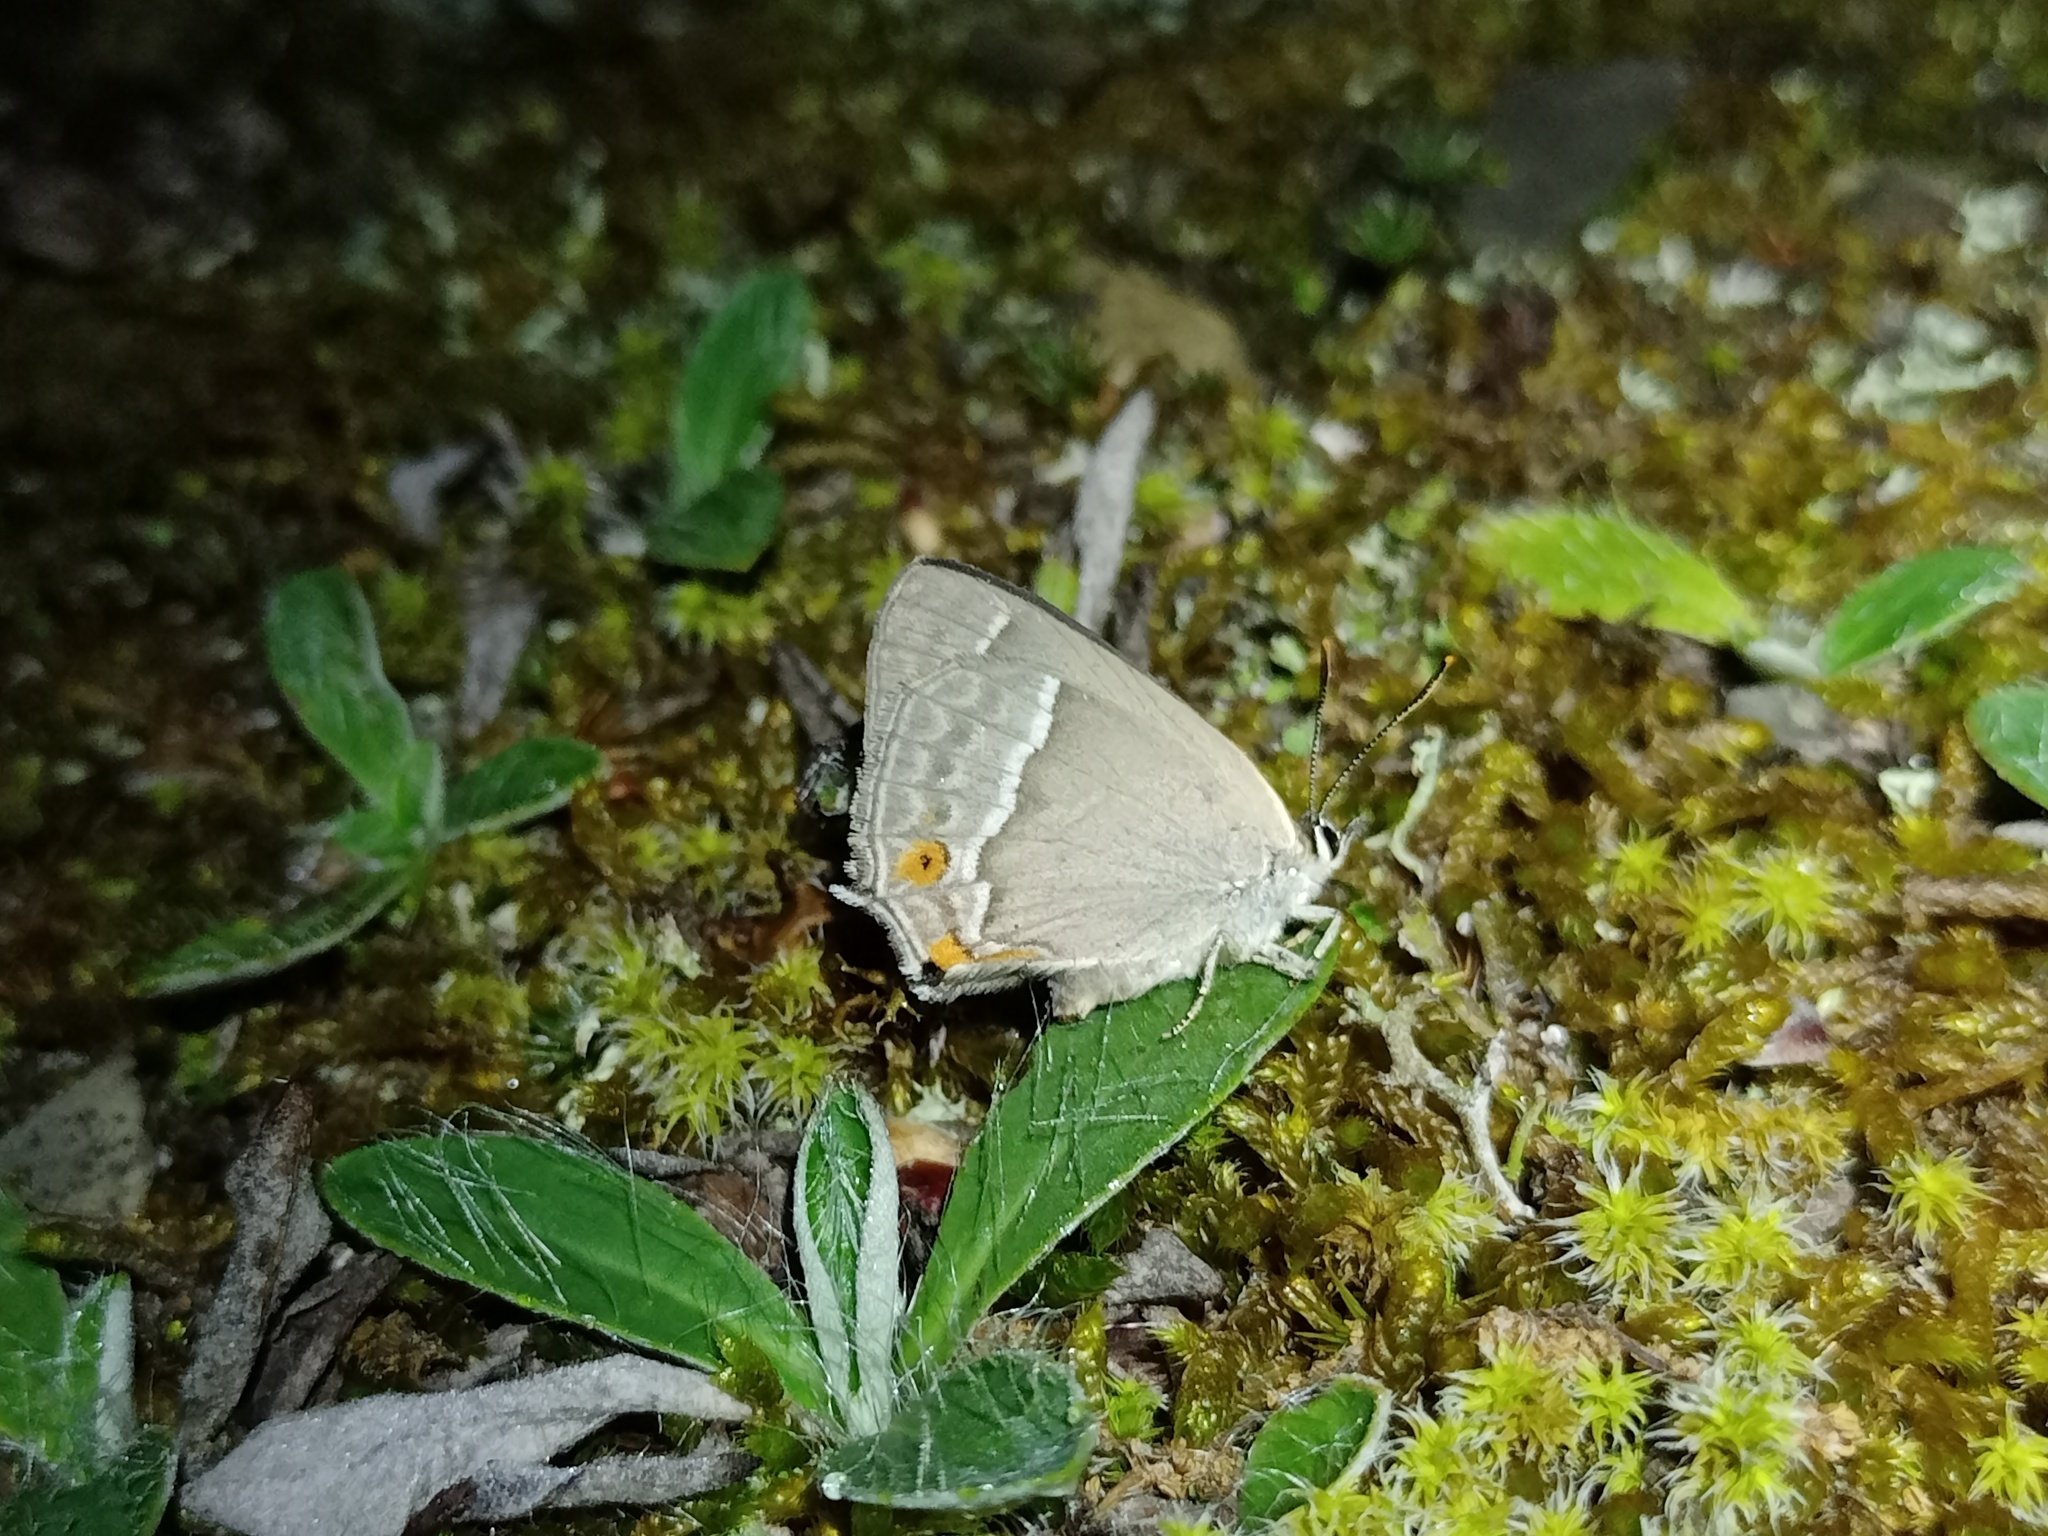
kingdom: Animalia
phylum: Arthropoda
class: Insecta
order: Lepidoptera
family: Lycaenidae
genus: Quercusia
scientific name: Quercusia quercus
